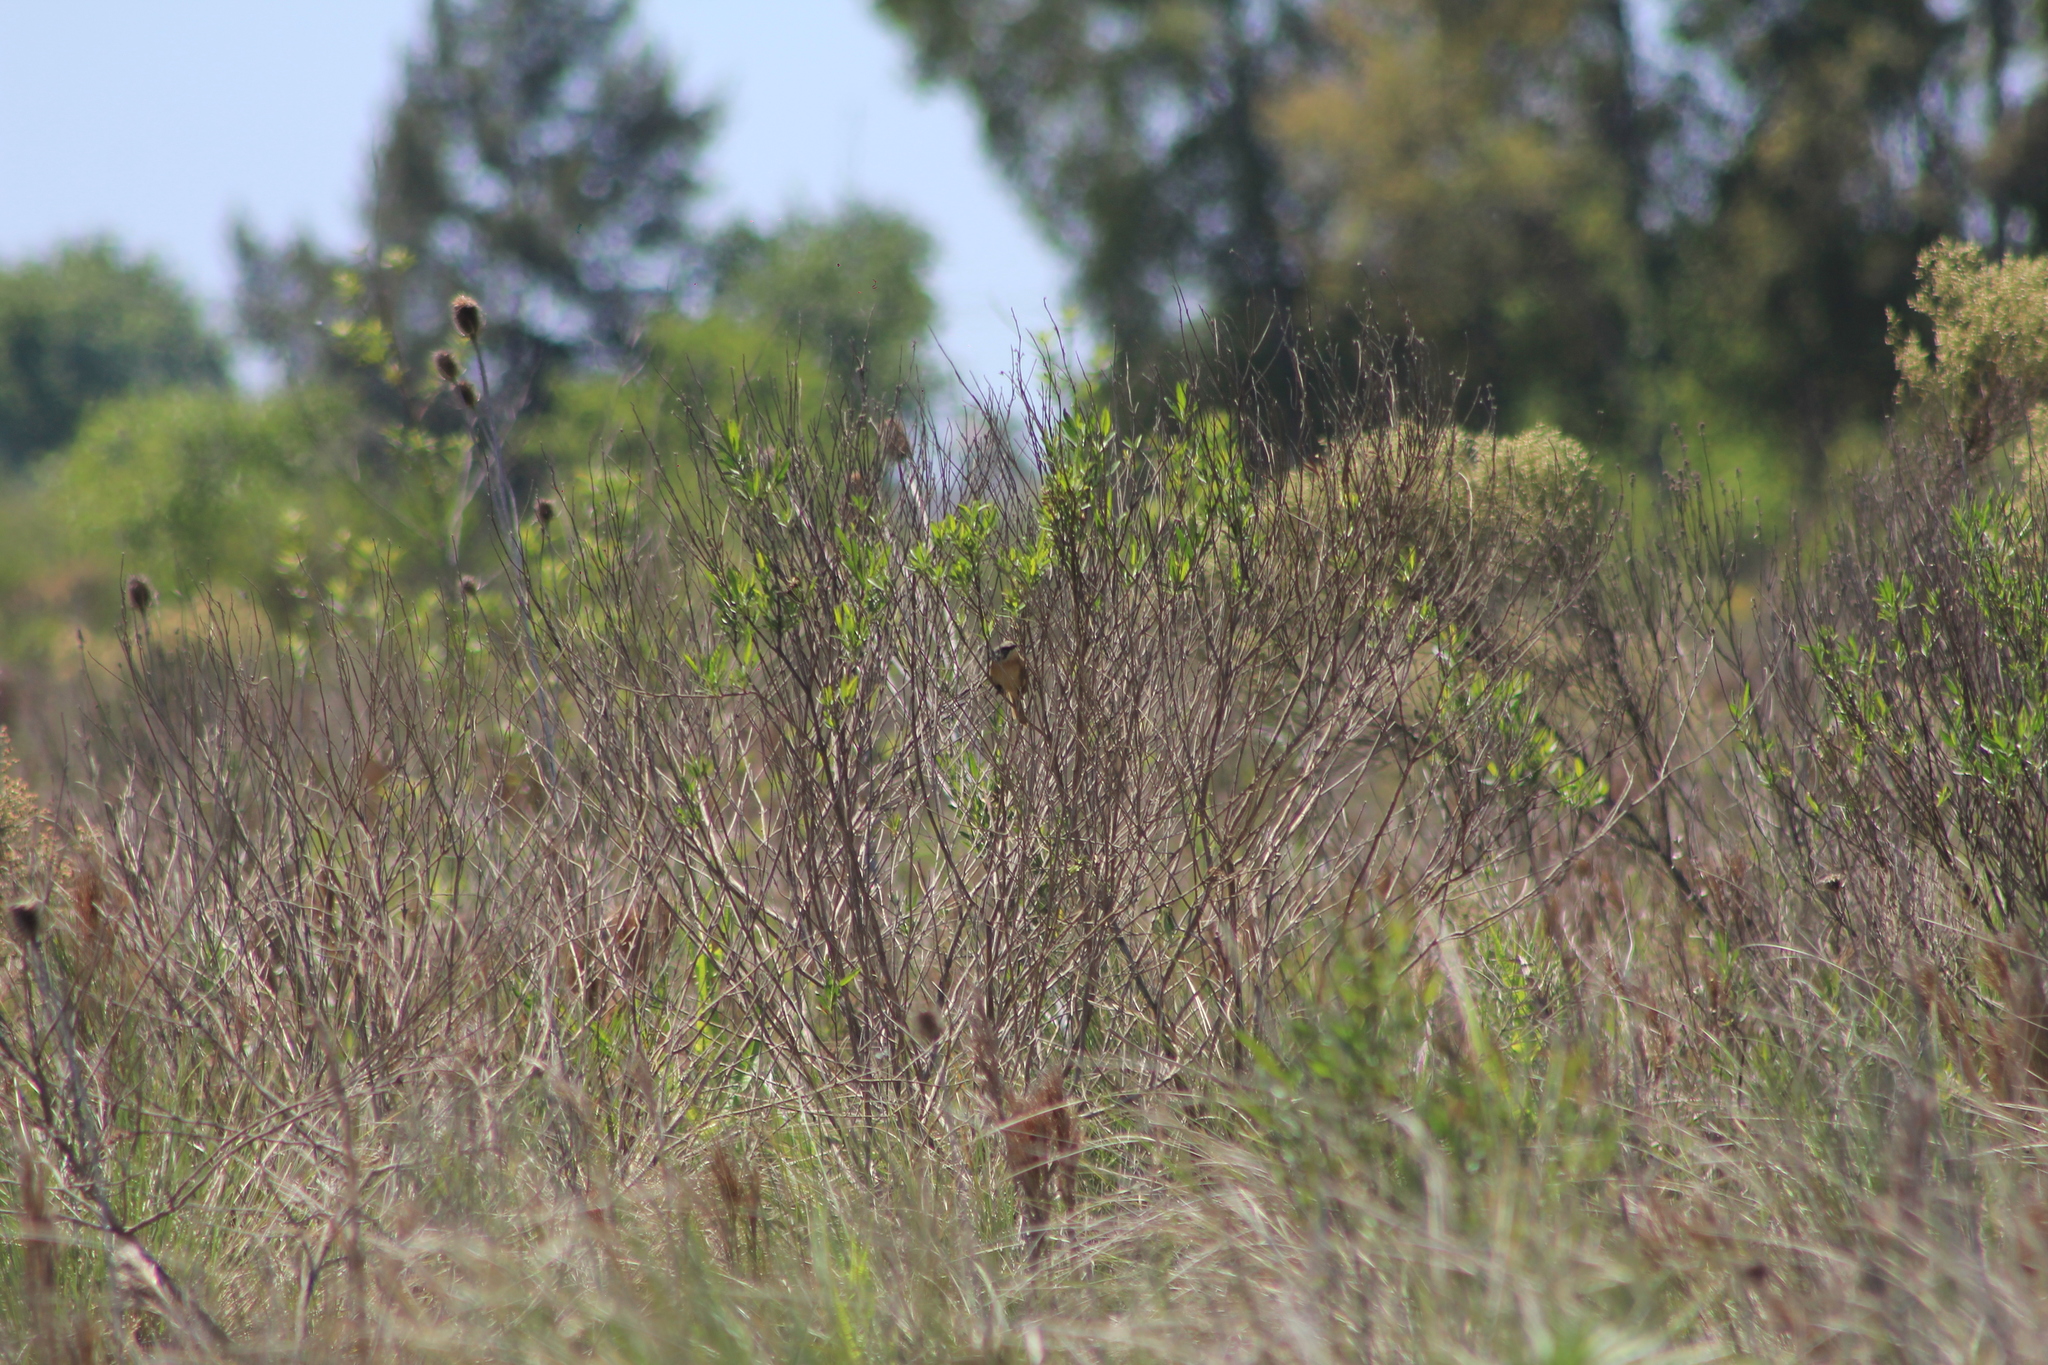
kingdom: Animalia
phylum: Chordata
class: Aves
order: Passeriformes
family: Thraupidae
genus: Donacospiza
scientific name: Donacospiza albifrons
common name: Long-tailed reed finch
